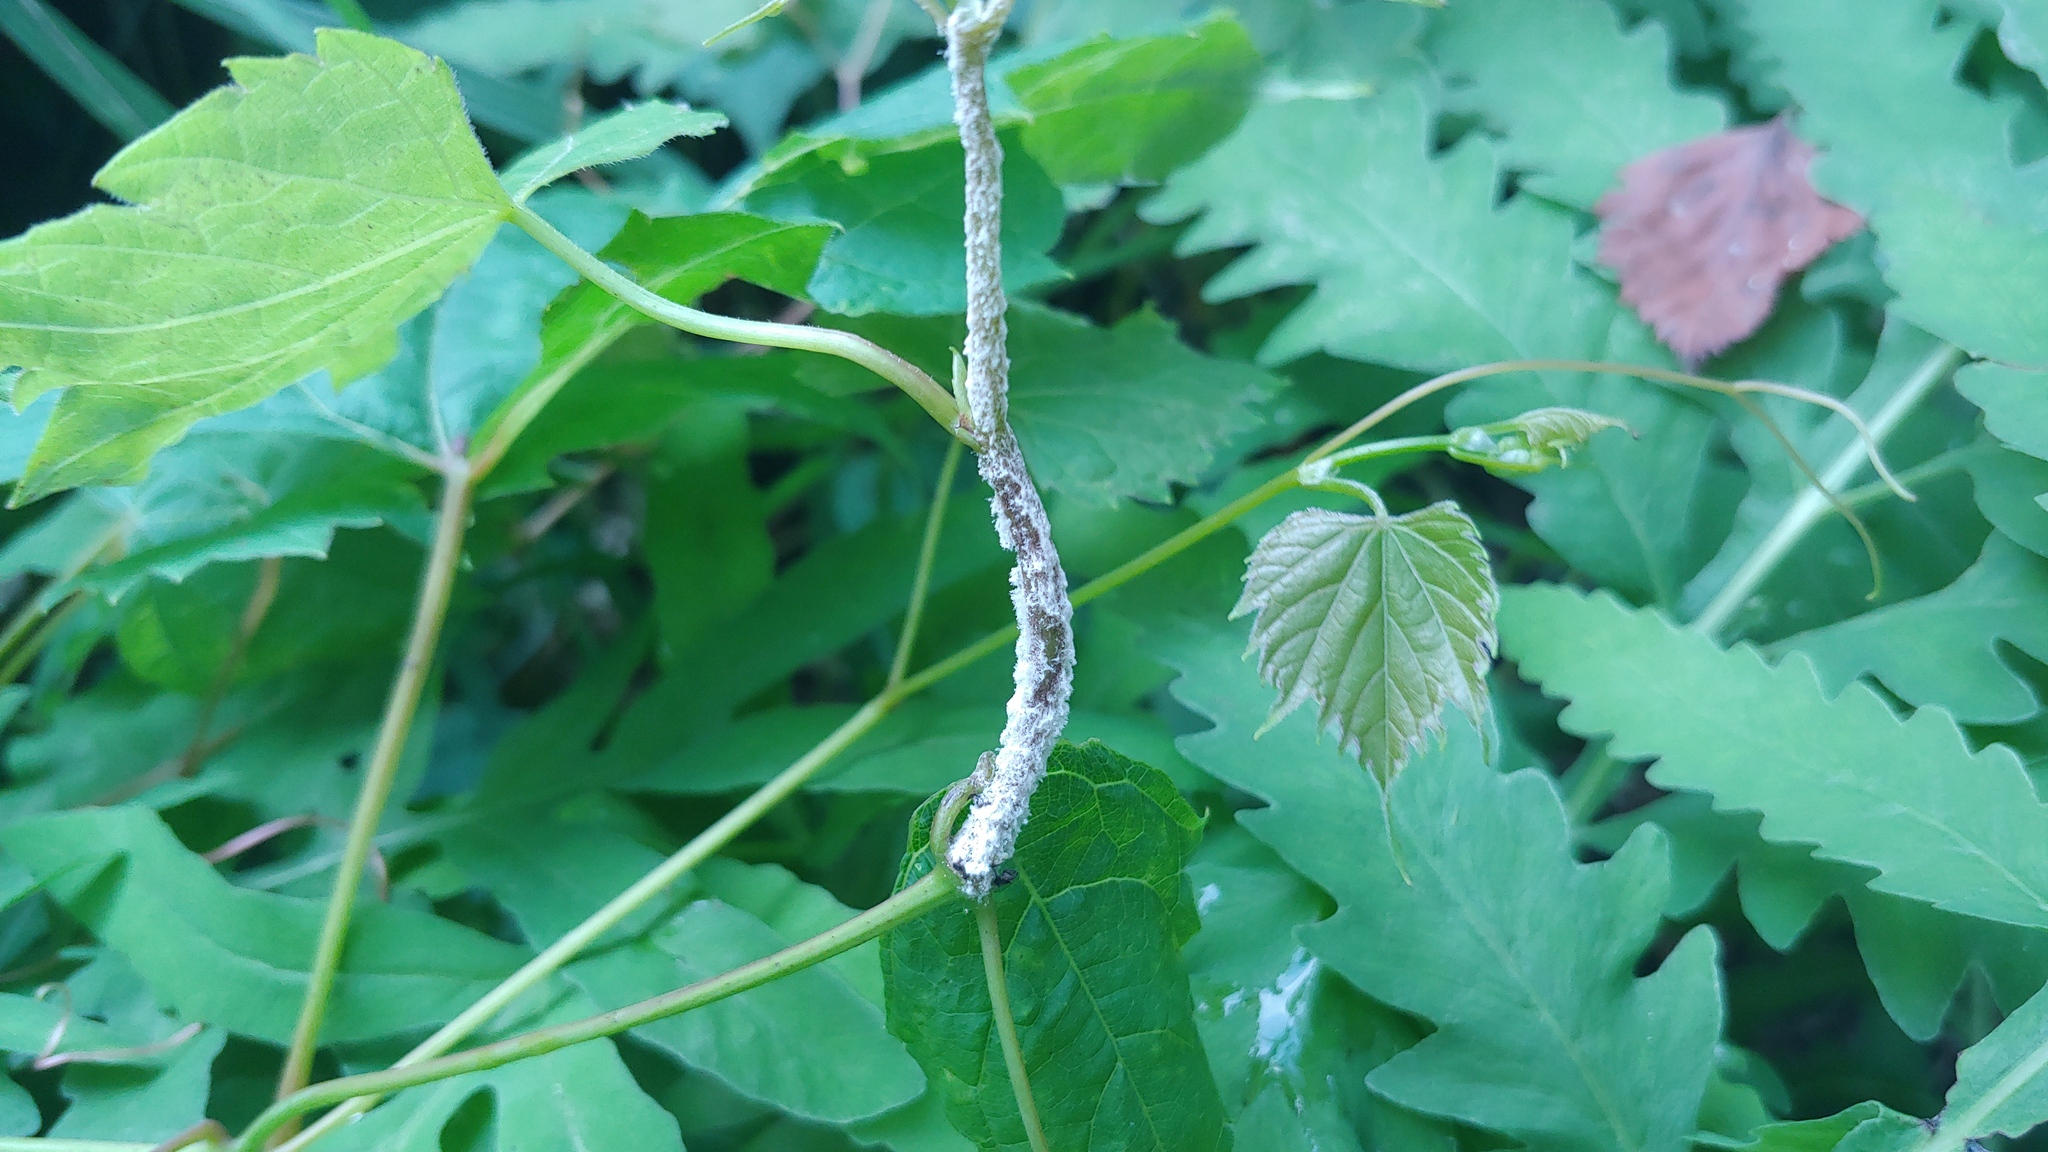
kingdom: Chromista
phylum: Oomycota
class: Peronosporea
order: Peronosporales
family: Peronosporaceae
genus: Plasmopara
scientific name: Plasmopara viticola
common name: Grapevine downy mildew
